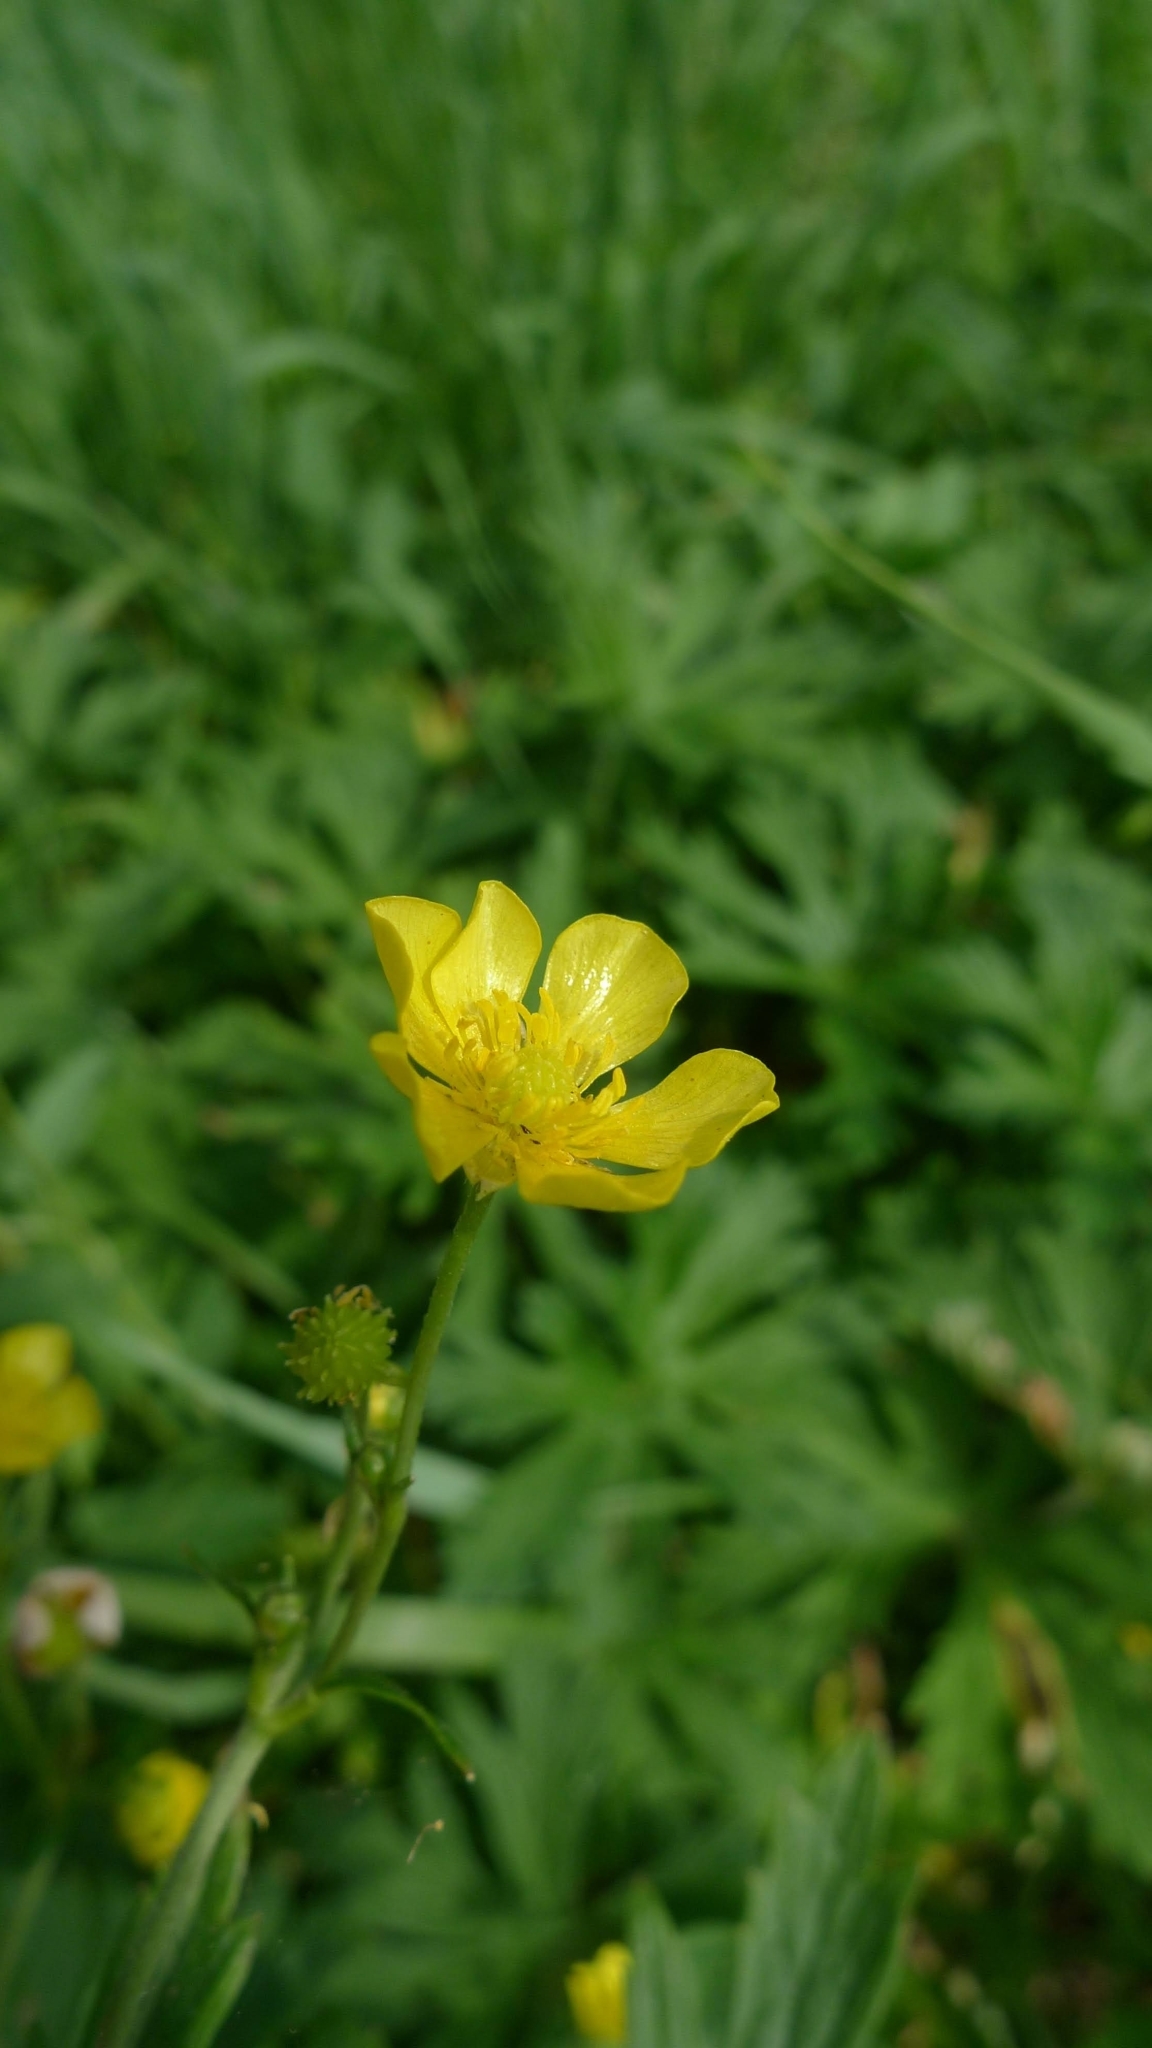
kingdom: Plantae
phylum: Tracheophyta
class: Magnoliopsida
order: Ranunculales
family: Ranunculaceae
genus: Ranunculus
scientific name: Ranunculus acris
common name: Meadow buttercup
